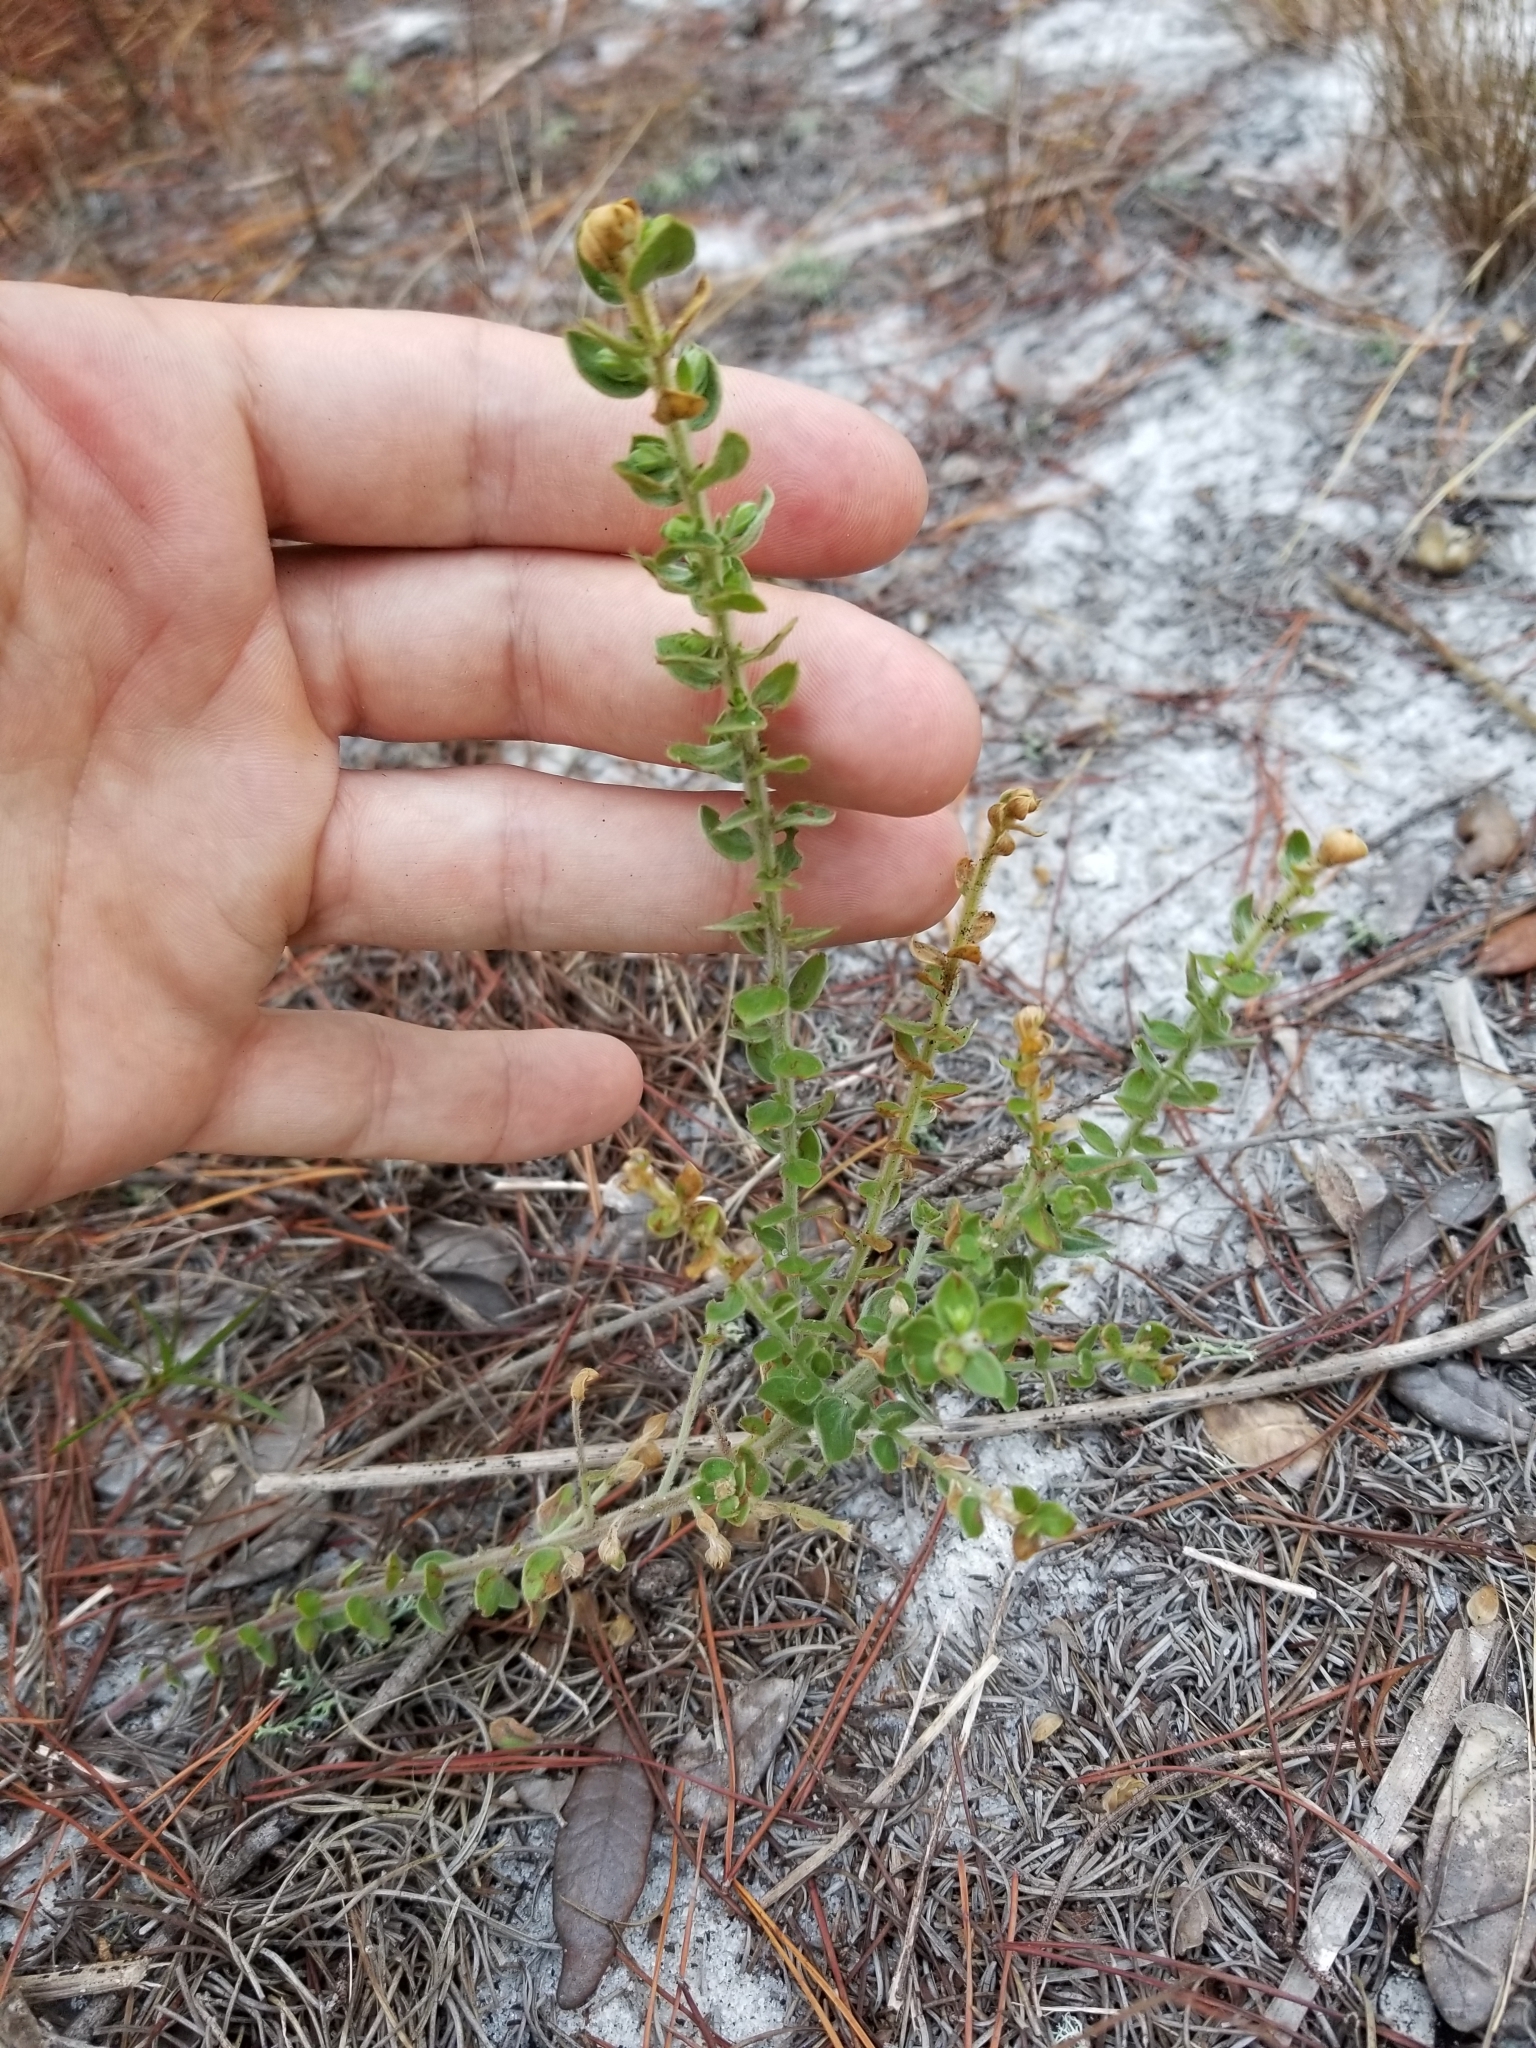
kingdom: Plantae
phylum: Tracheophyta
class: Magnoliopsida
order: Malvales
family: Cistaceae
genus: Lechea
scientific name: Lechea cernua
